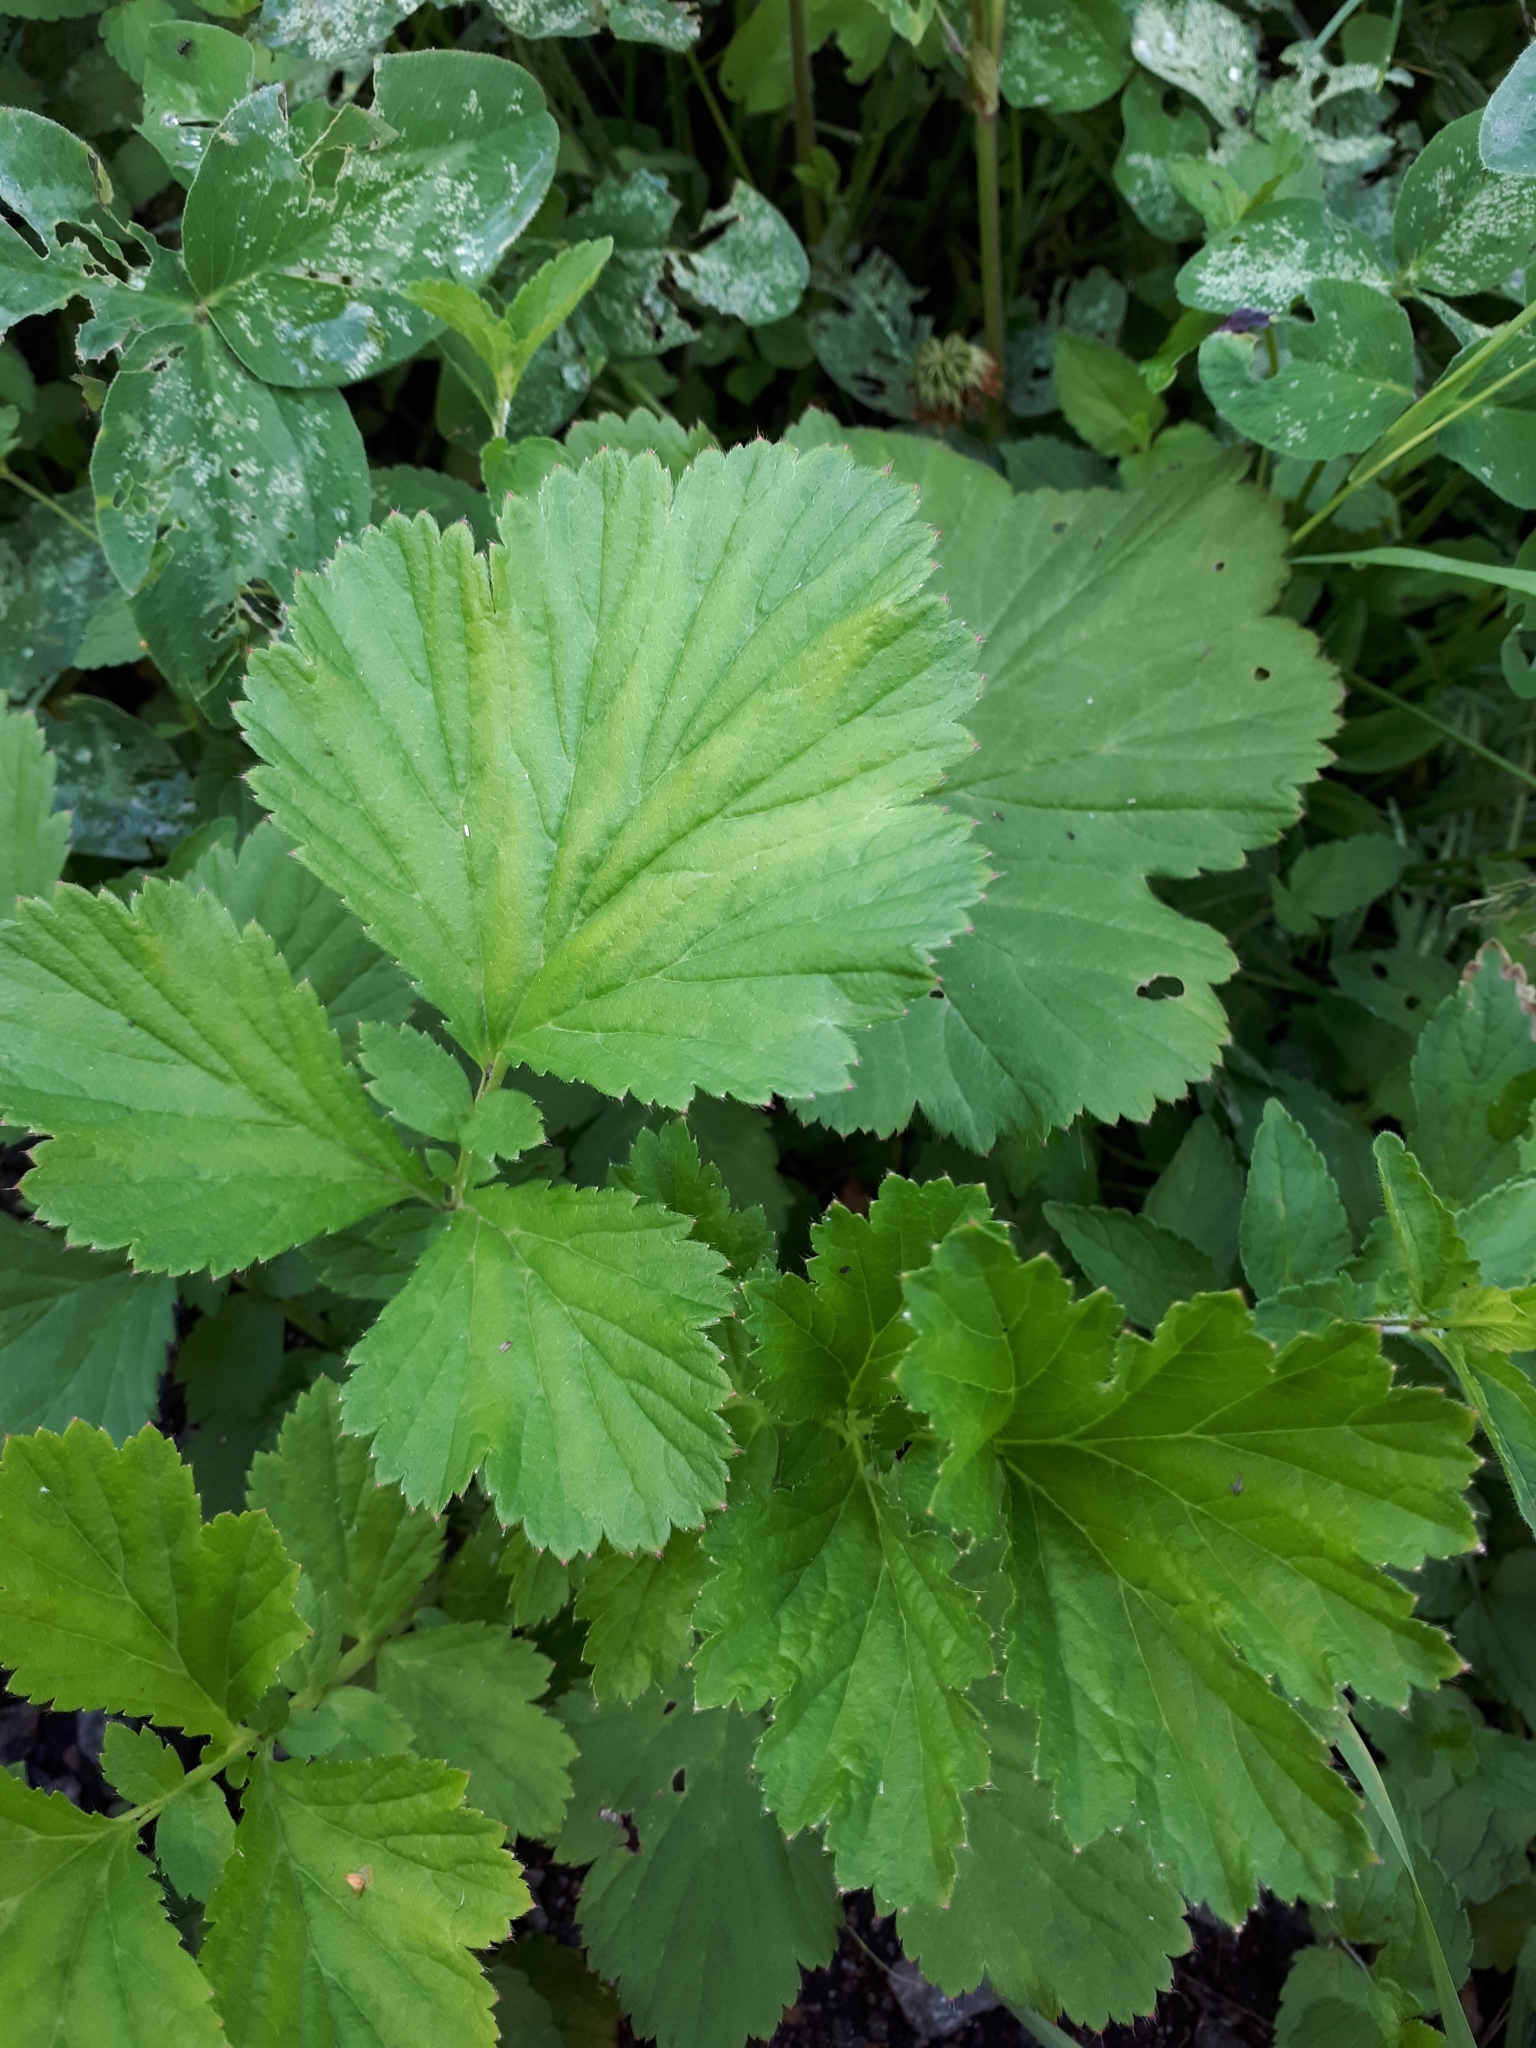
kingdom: Plantae
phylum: Tracheophyta
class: Magnoliopsida
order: Rosales
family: Rosaceae
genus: Geum
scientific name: Geum rivale
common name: Water avens
